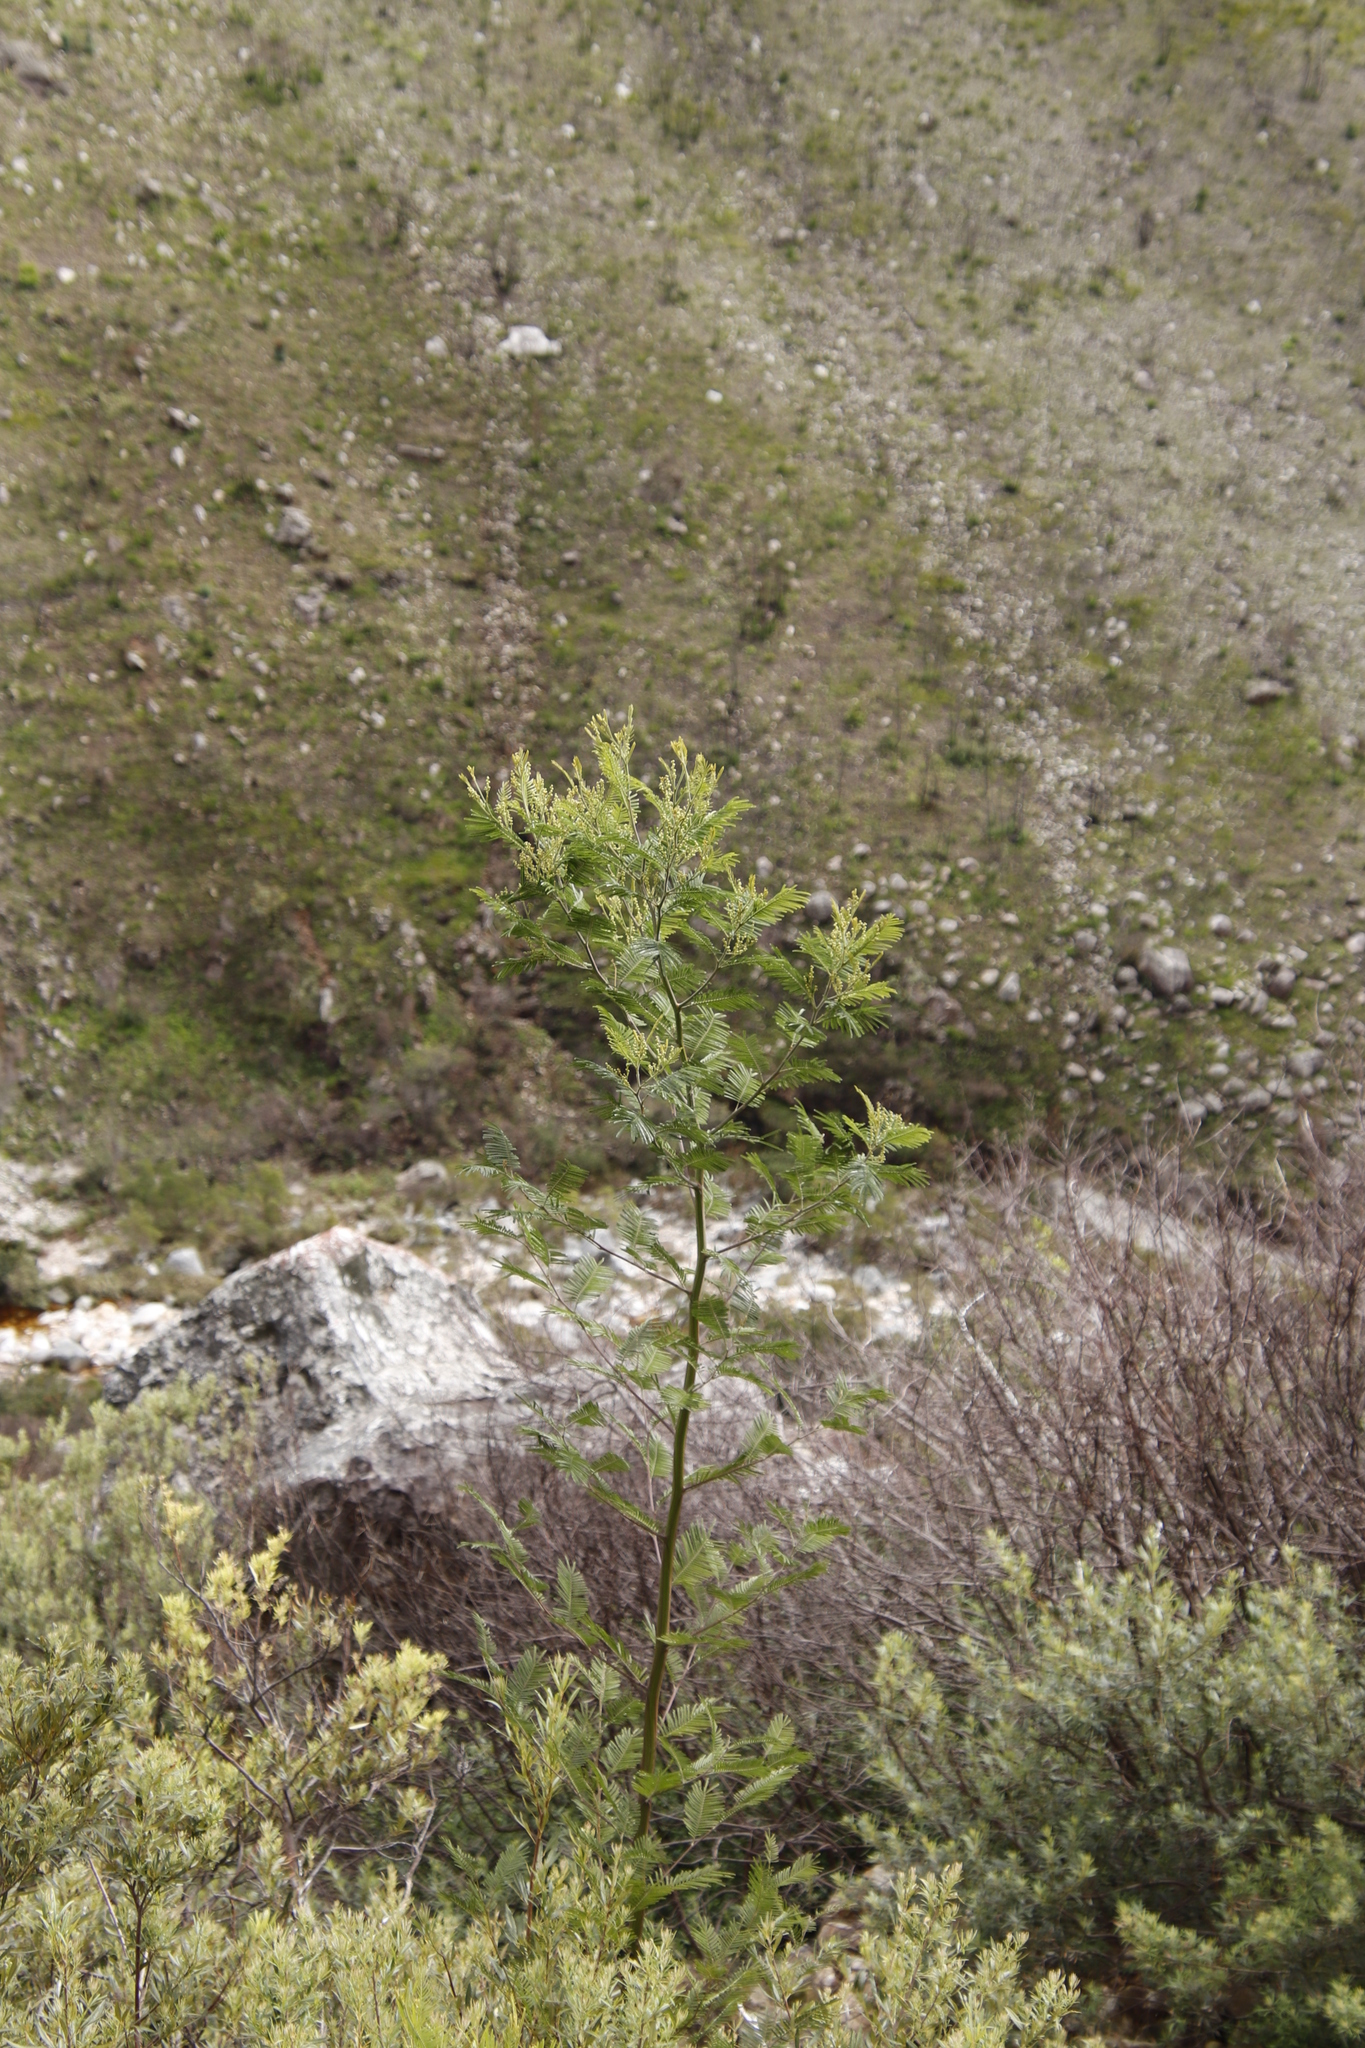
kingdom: Plantae
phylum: Tracheophyta
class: Magnoliopsida
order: Fabales
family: Fabaceae
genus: Acacia
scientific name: Acacia mearnsii
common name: Black wattle
